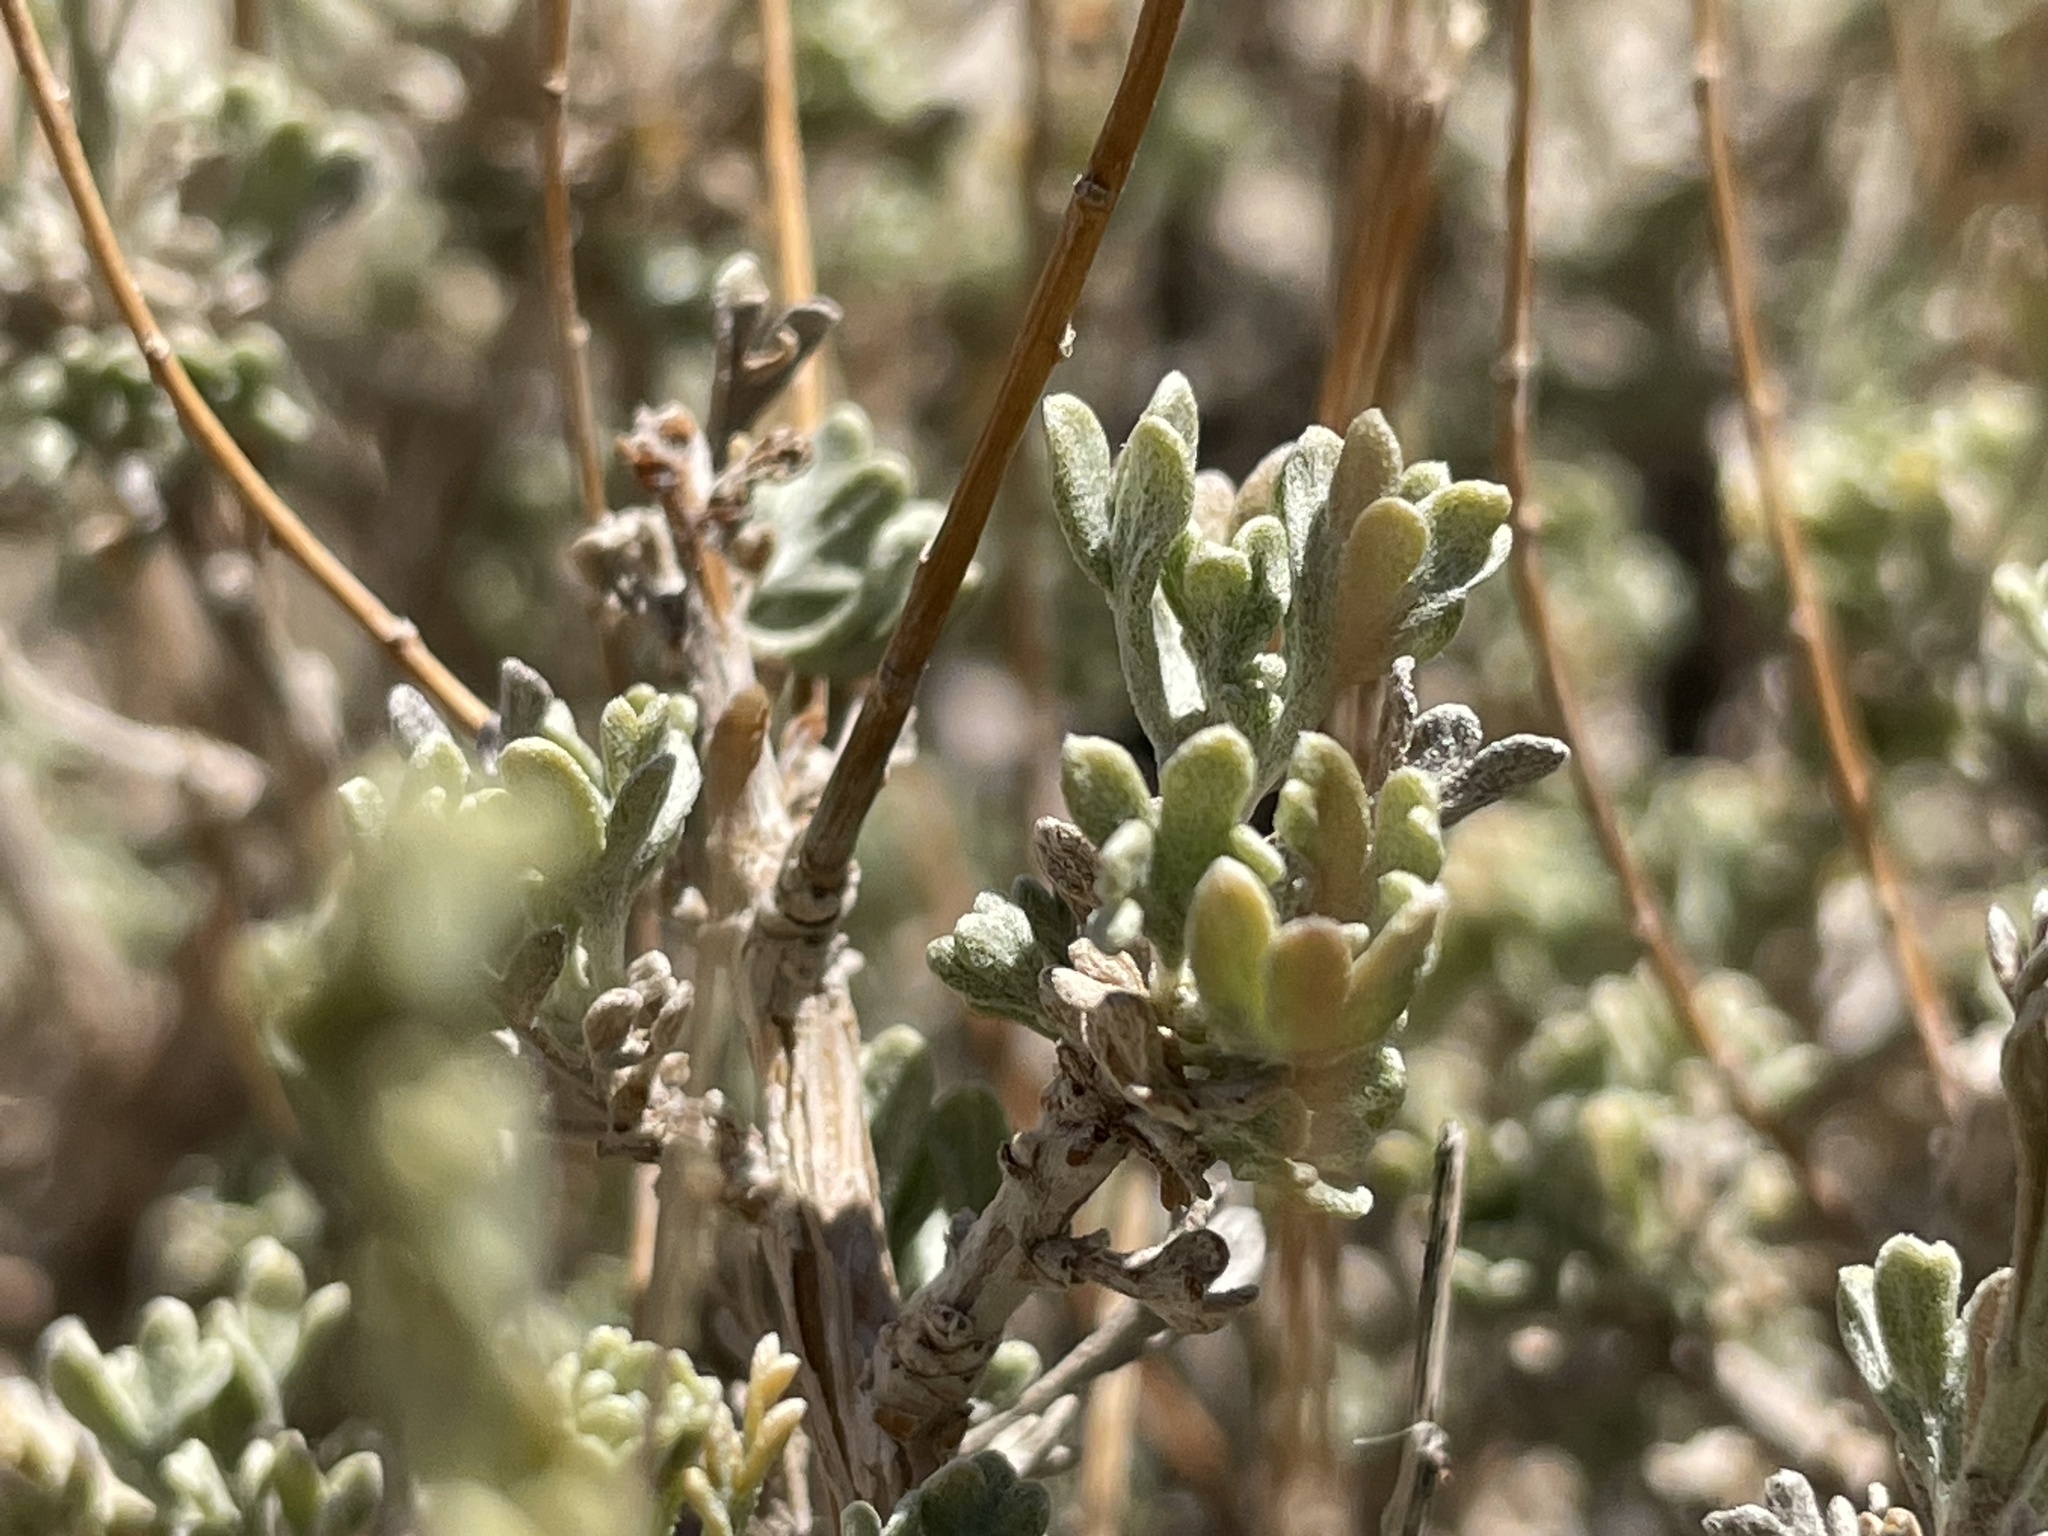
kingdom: Plantae
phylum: Tracheophyta
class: Magnoliopsida
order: Asterales
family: Asteraceae
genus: Artemisia
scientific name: Artemisia tridentata
